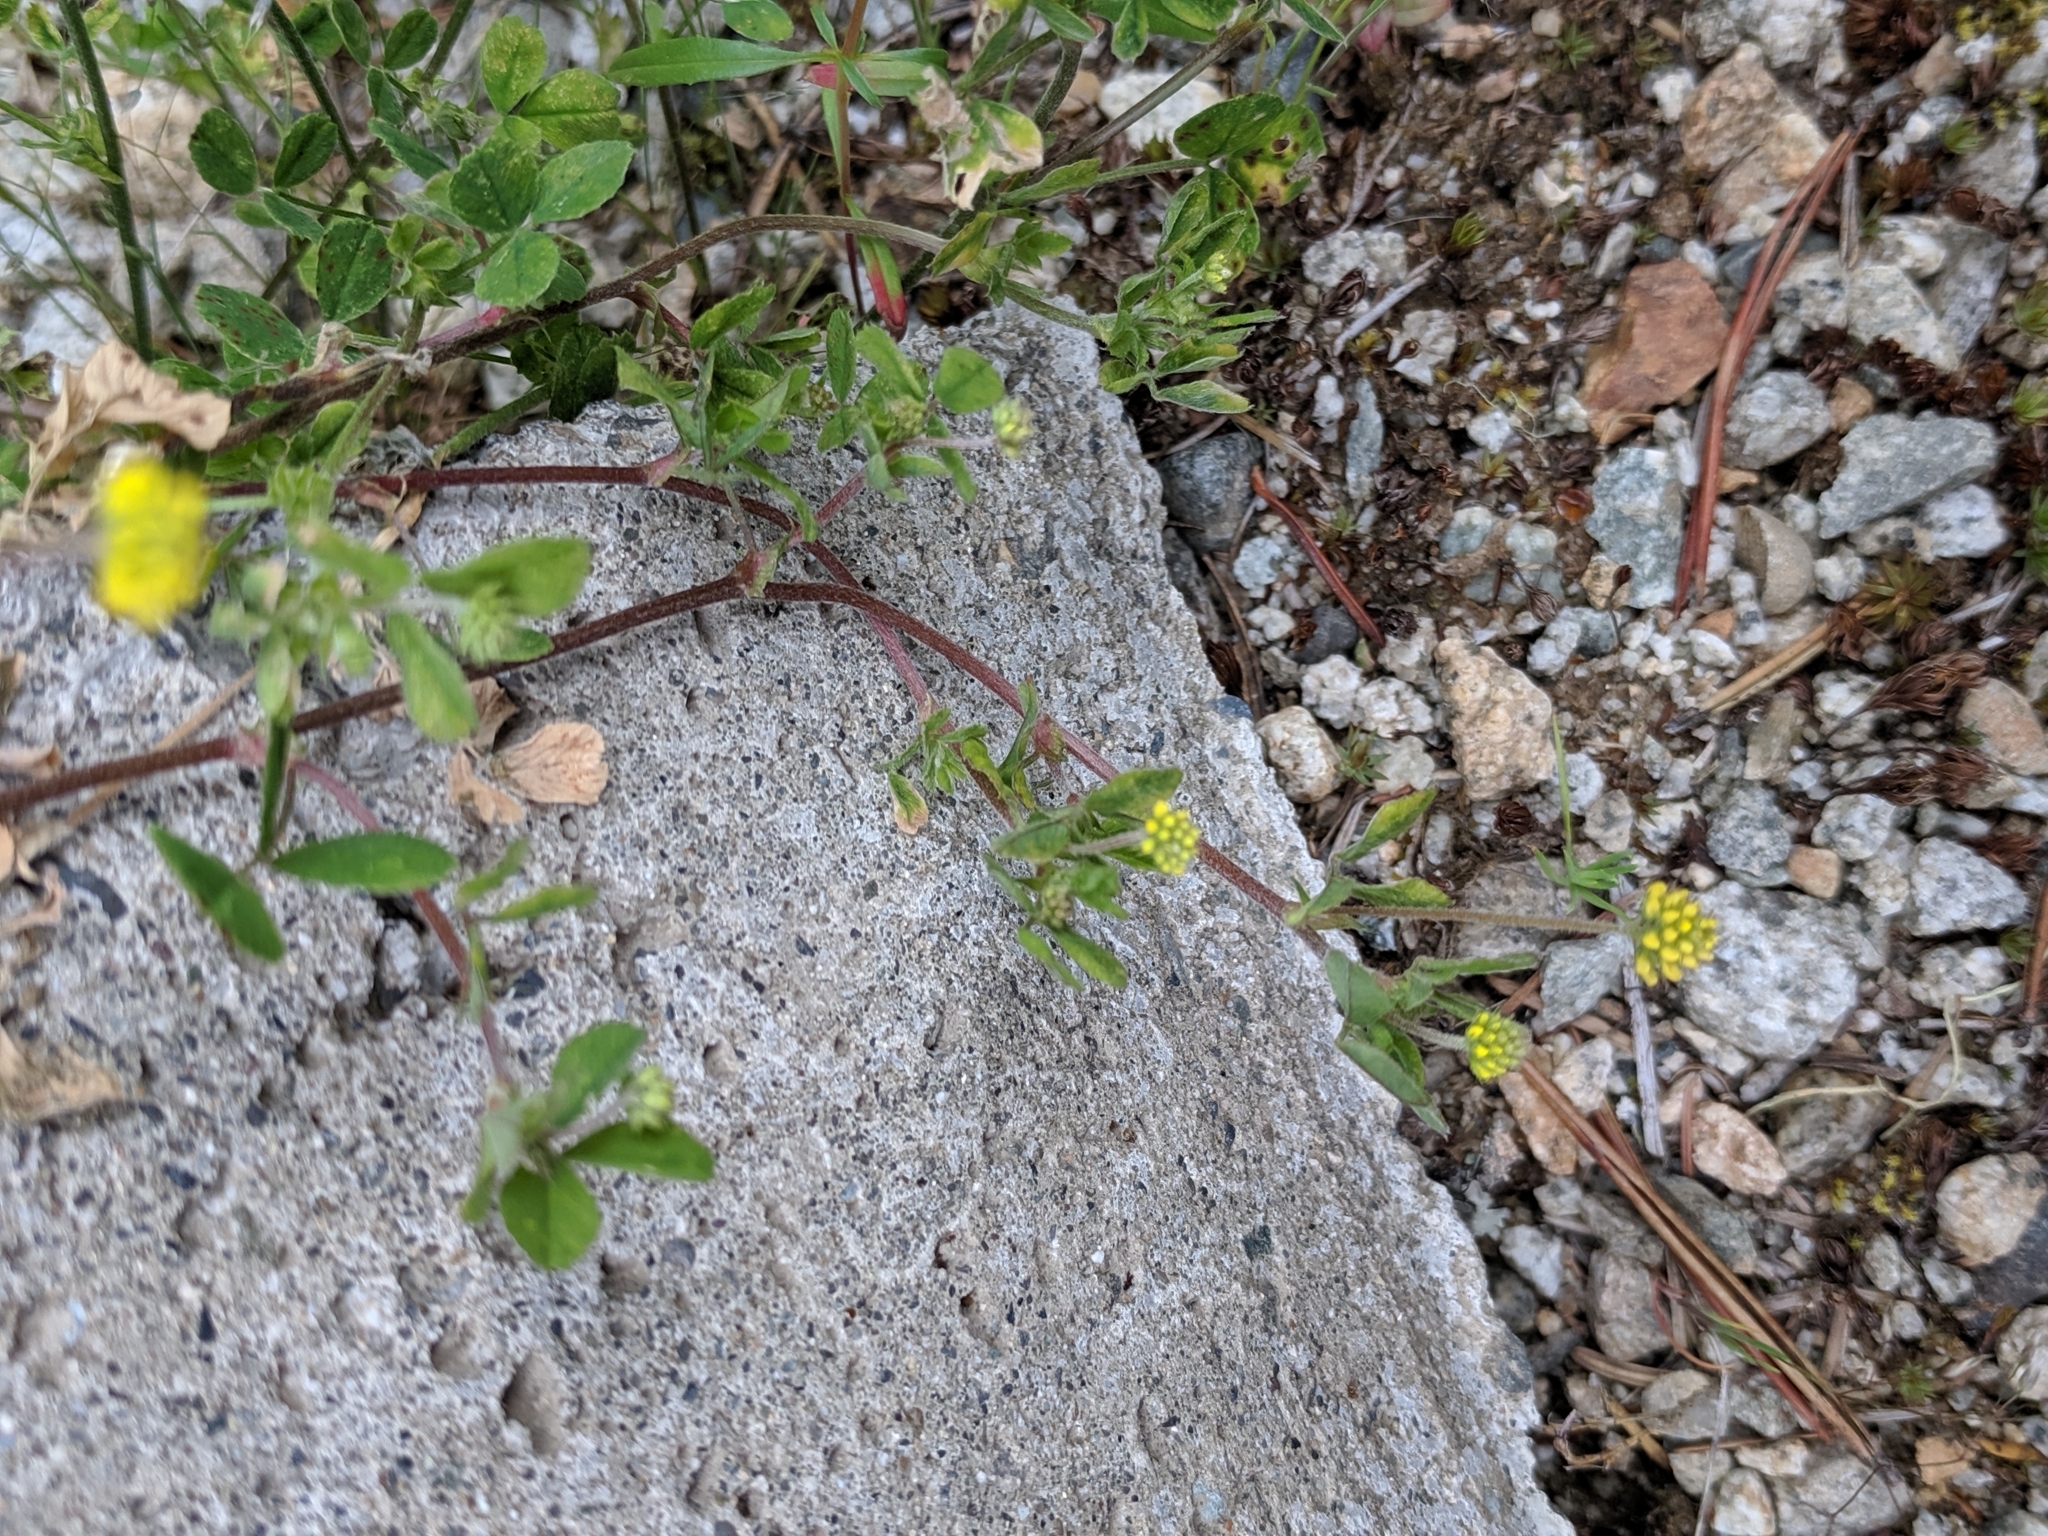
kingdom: Plantae
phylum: Tracheophyta
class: Magnoliopsida
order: Fabales
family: Fabaceae
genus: Medicago
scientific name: Medicago lupulina
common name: Black medick
